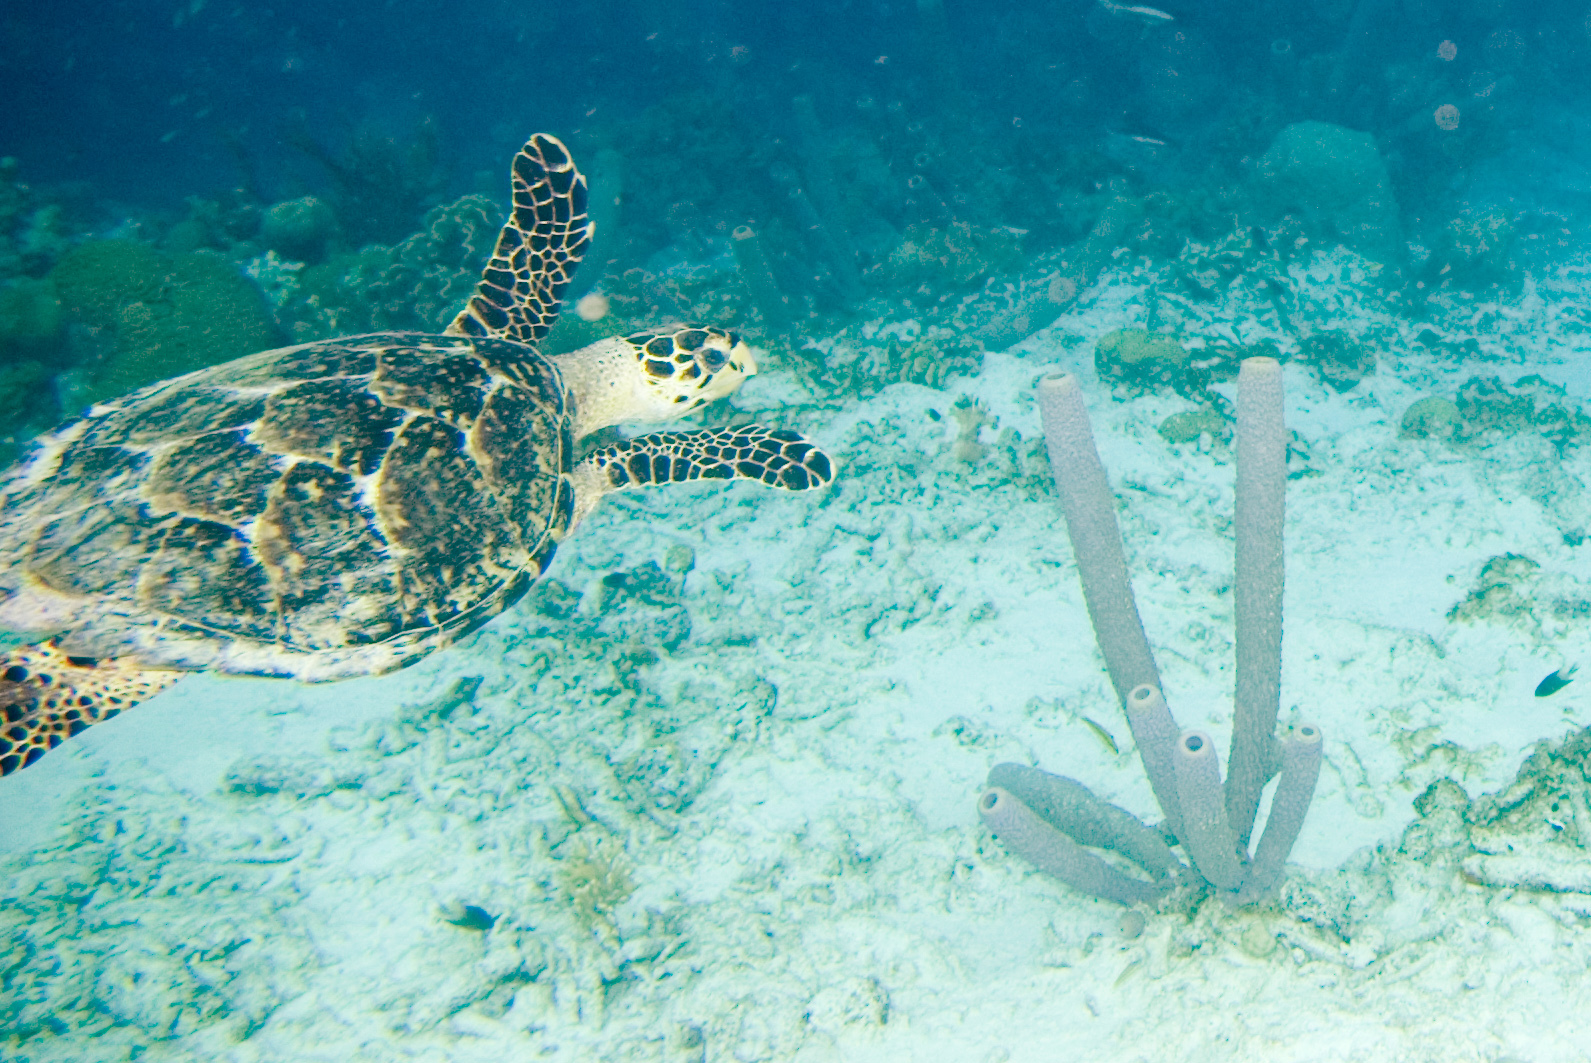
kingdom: Animalia
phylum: Chordata
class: Testudines
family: Cheloniidae
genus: Eretmochelys
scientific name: Eretmochelys imbricata
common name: Hawksbill turtle
